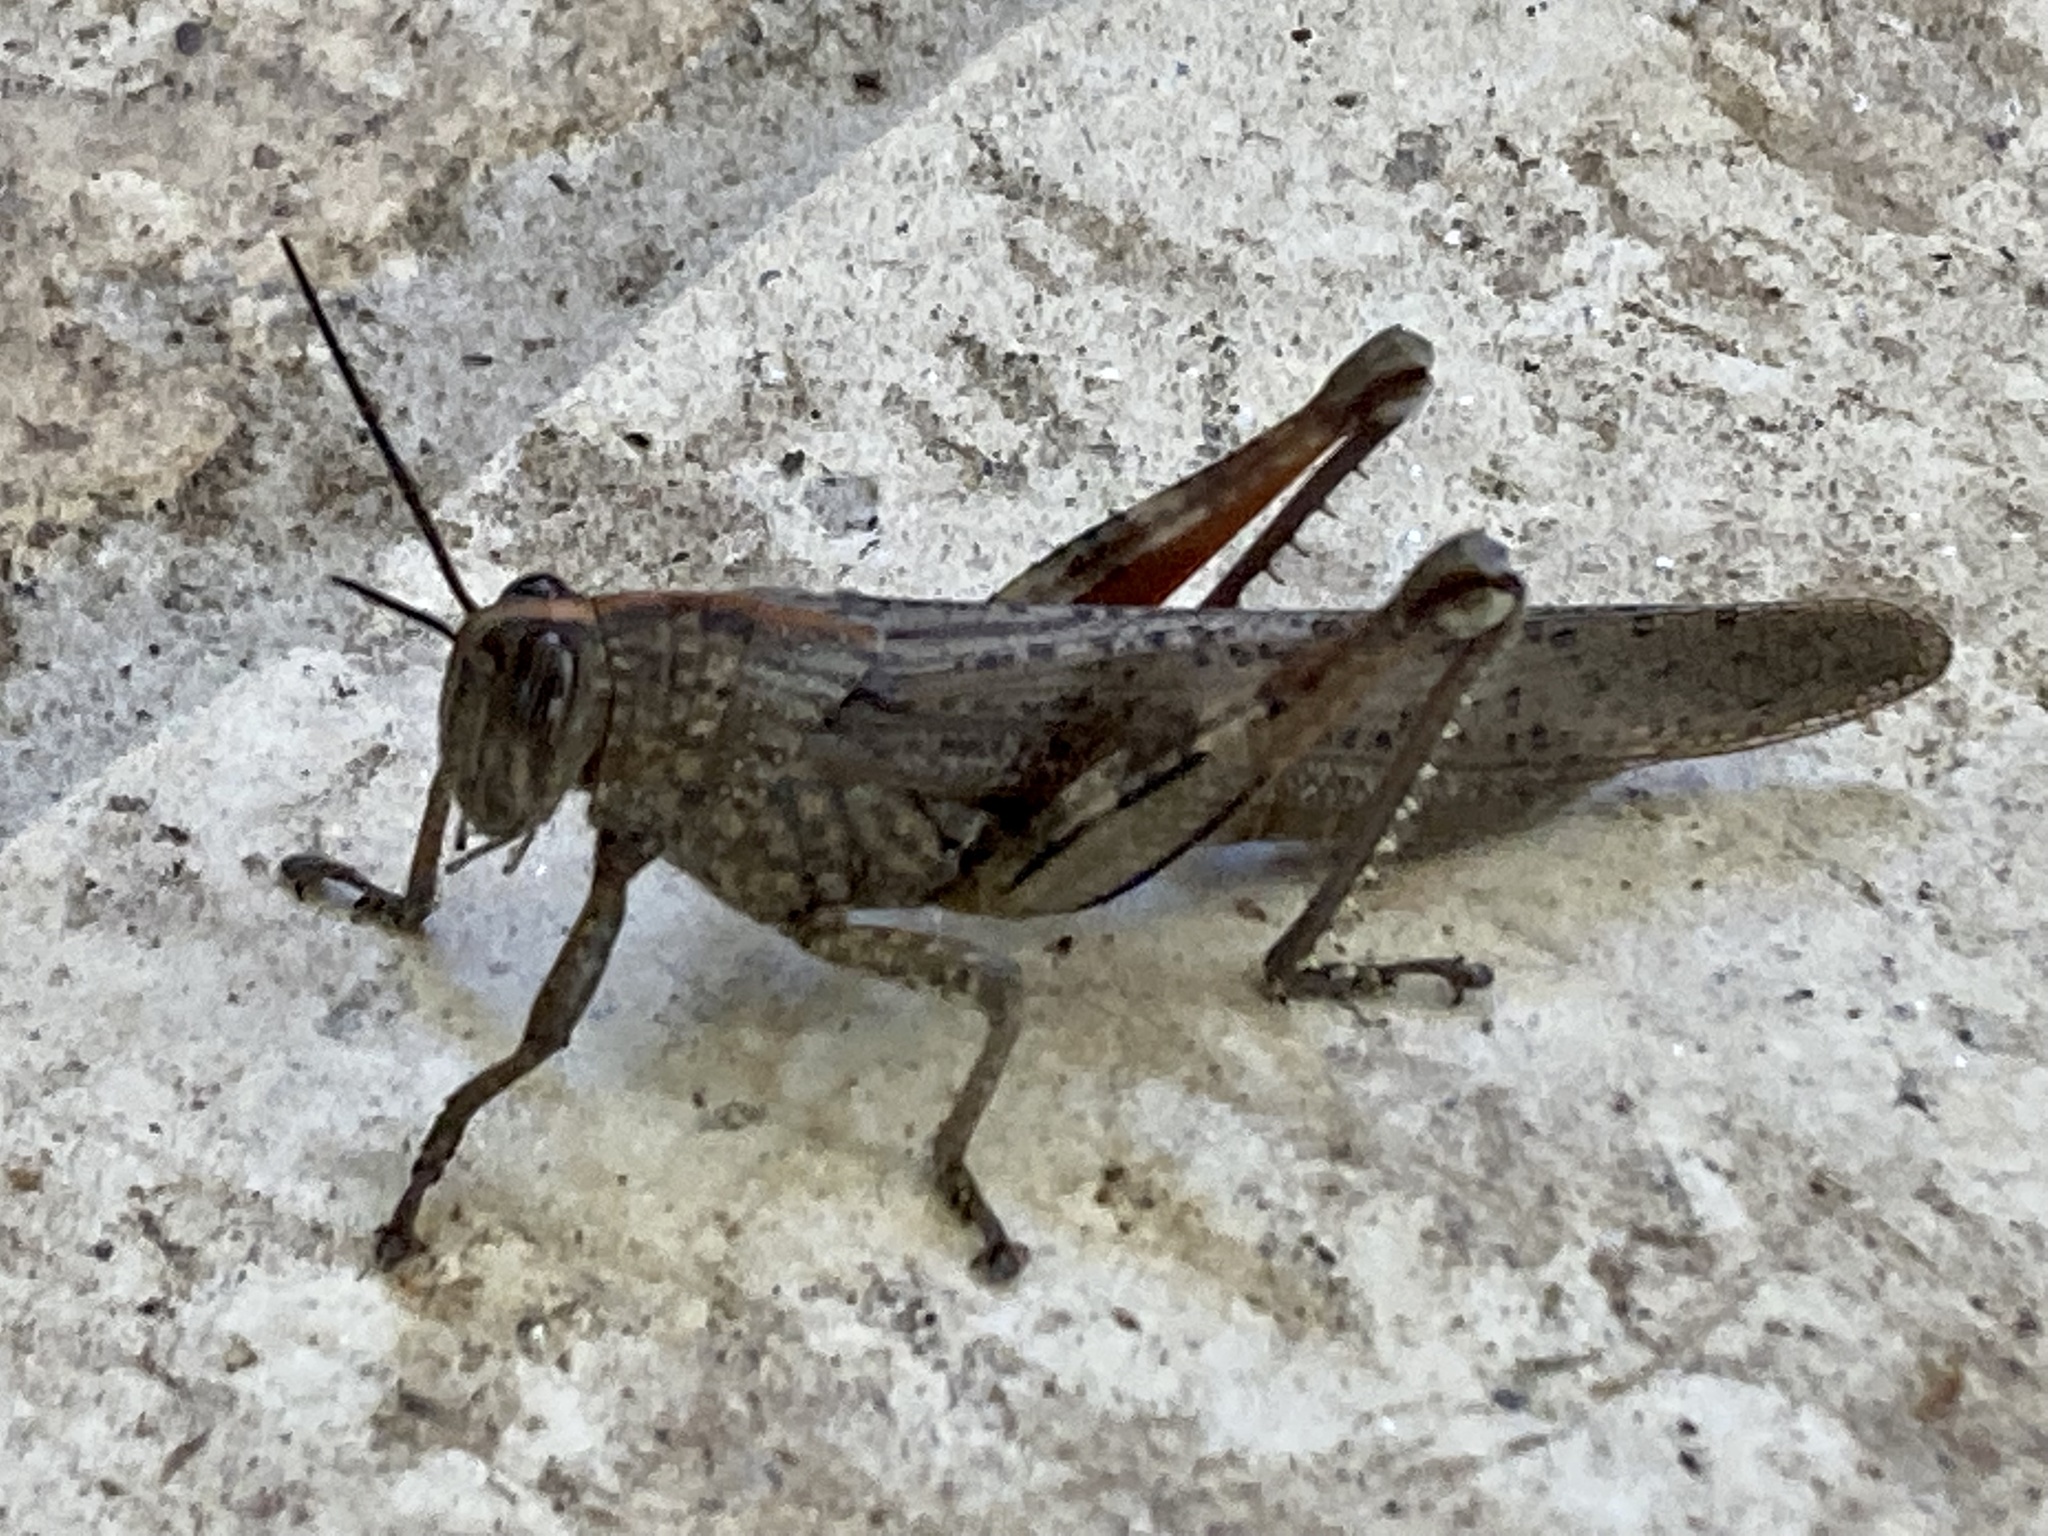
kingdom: Animalia
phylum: Arthropoda
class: Insecta
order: Orthoptera
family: Acrididae
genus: Anacridium
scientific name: Anacridium aegyptium
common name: Egyptian grasshopper
